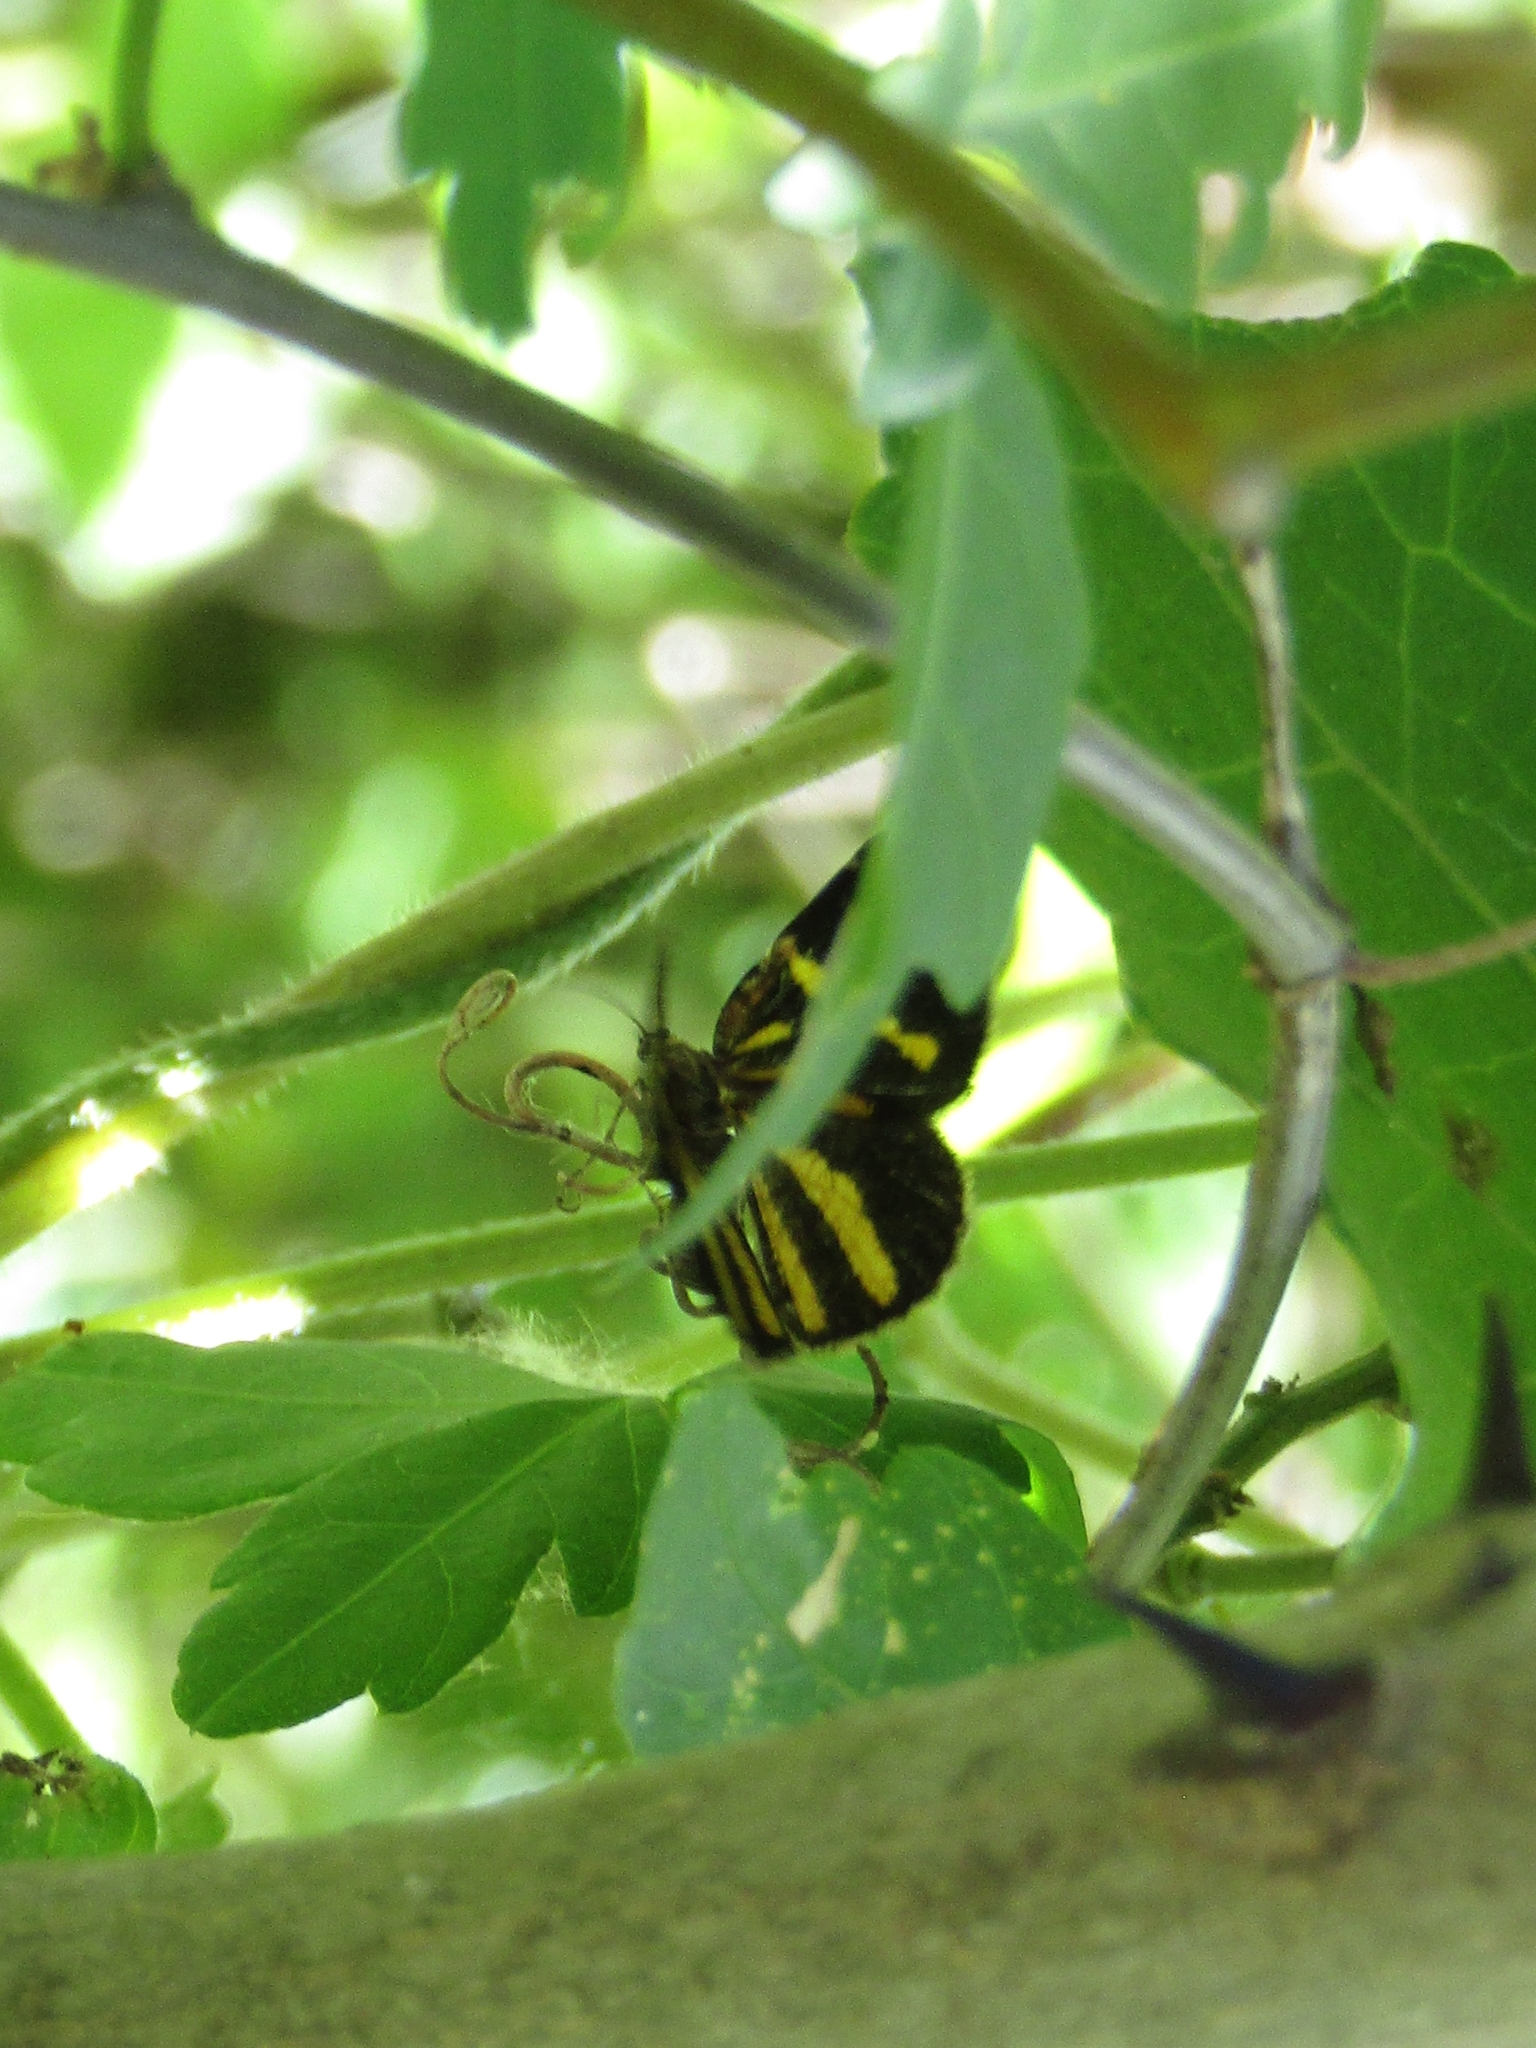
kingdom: Animalia
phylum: Arthropoda
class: Insecta
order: Lepidoptera
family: Geometridae
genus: Heterusia
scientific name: Heterusia quadruplicaria
